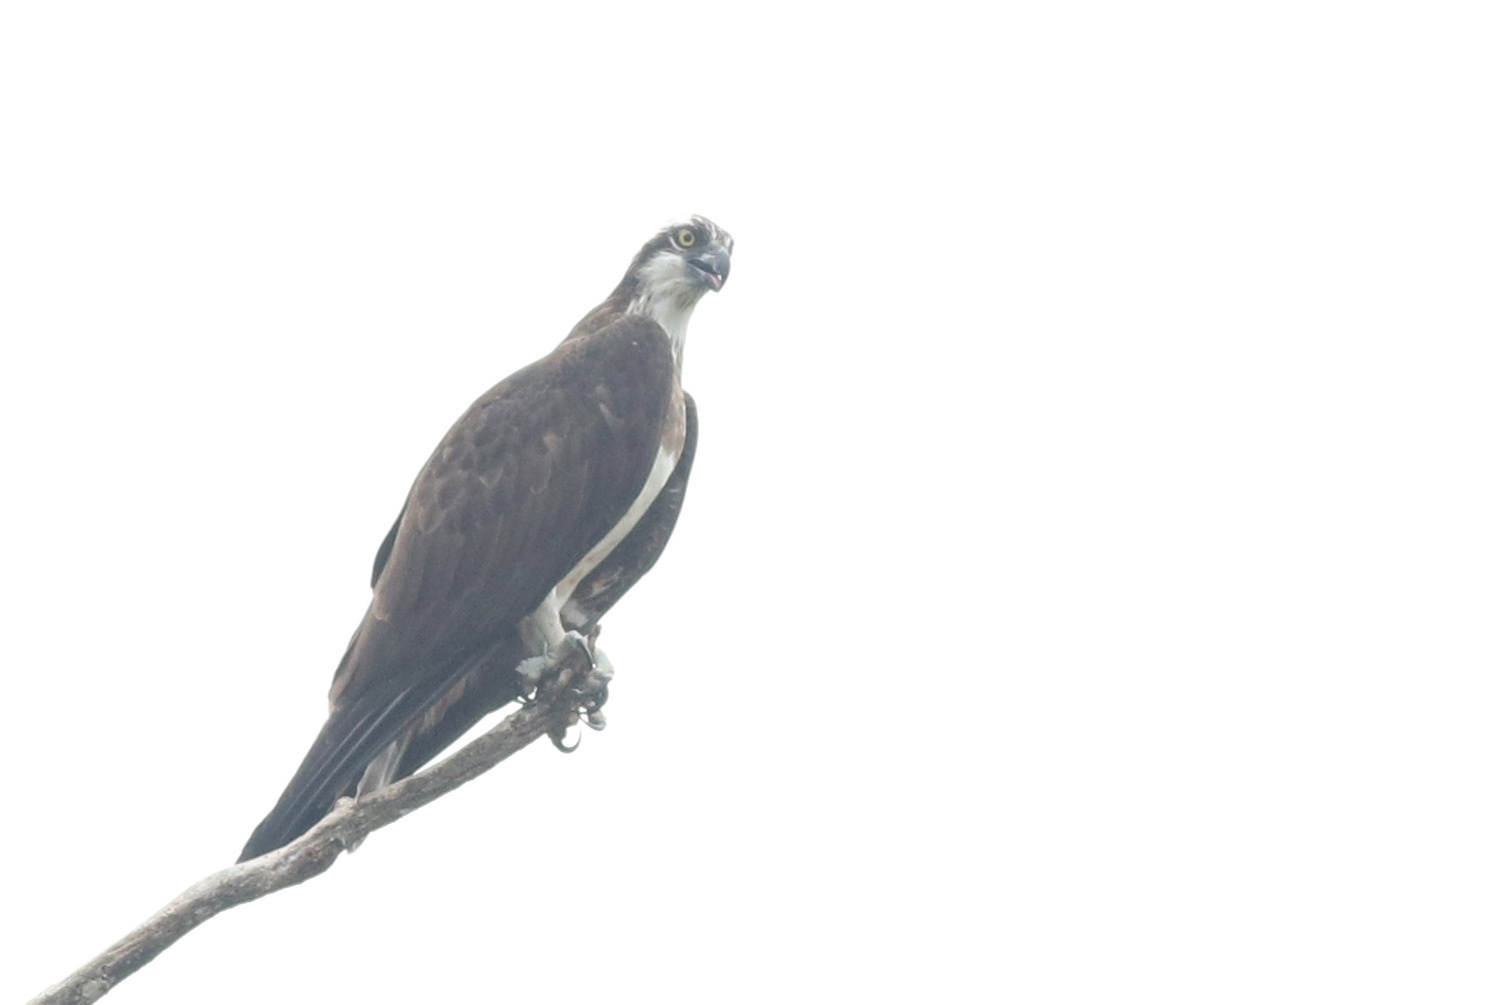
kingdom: Animalia
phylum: Chordata
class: Aves
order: Accipitriformes
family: Pandionidae
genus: Pandion
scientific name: Pandion haliaetus
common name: Osprey
